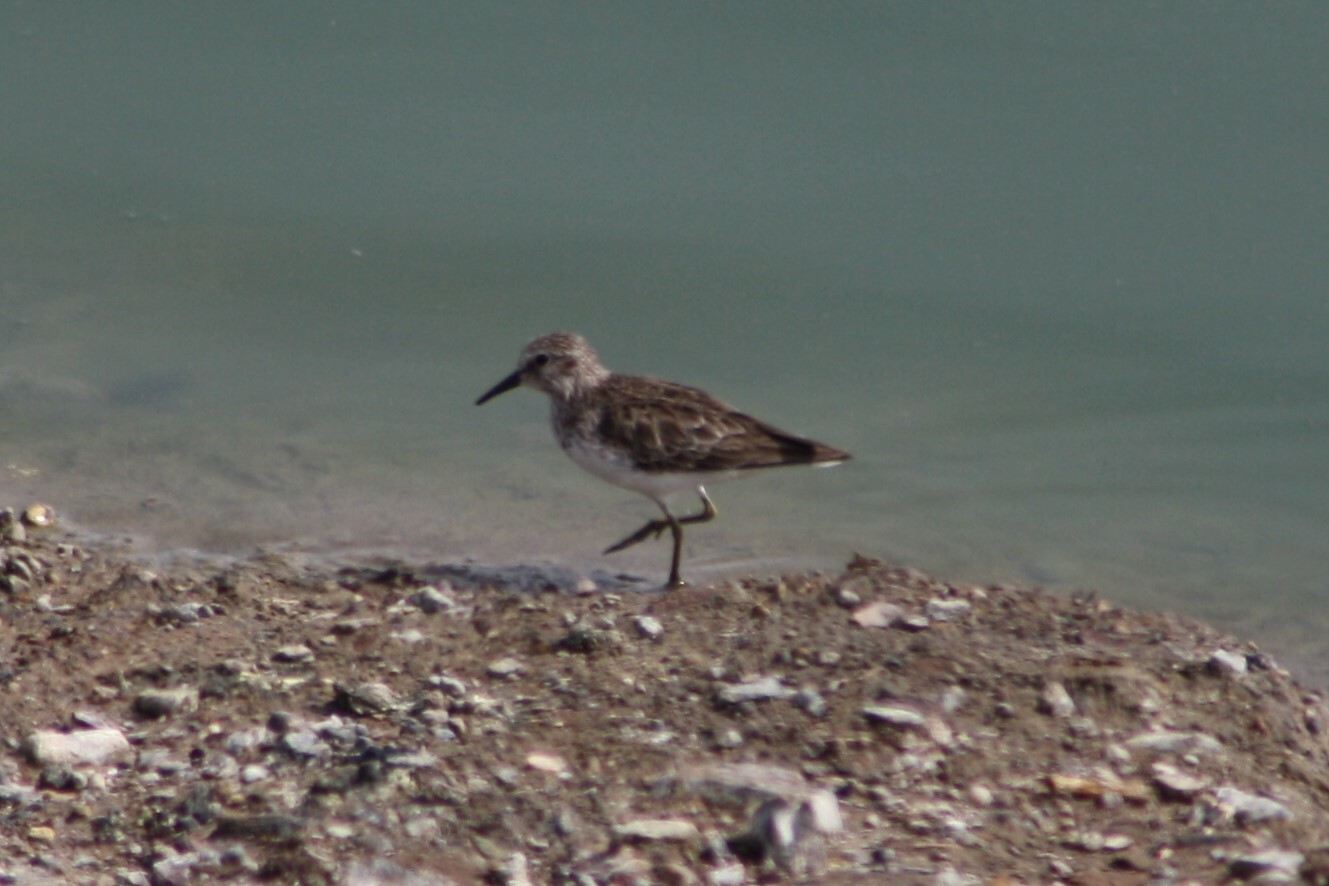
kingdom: Animalia
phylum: Chordata
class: Aves
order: Charadriiformes
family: Scolopacidae
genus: Calidris
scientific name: Calidris minutilla
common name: Least sandpiper
